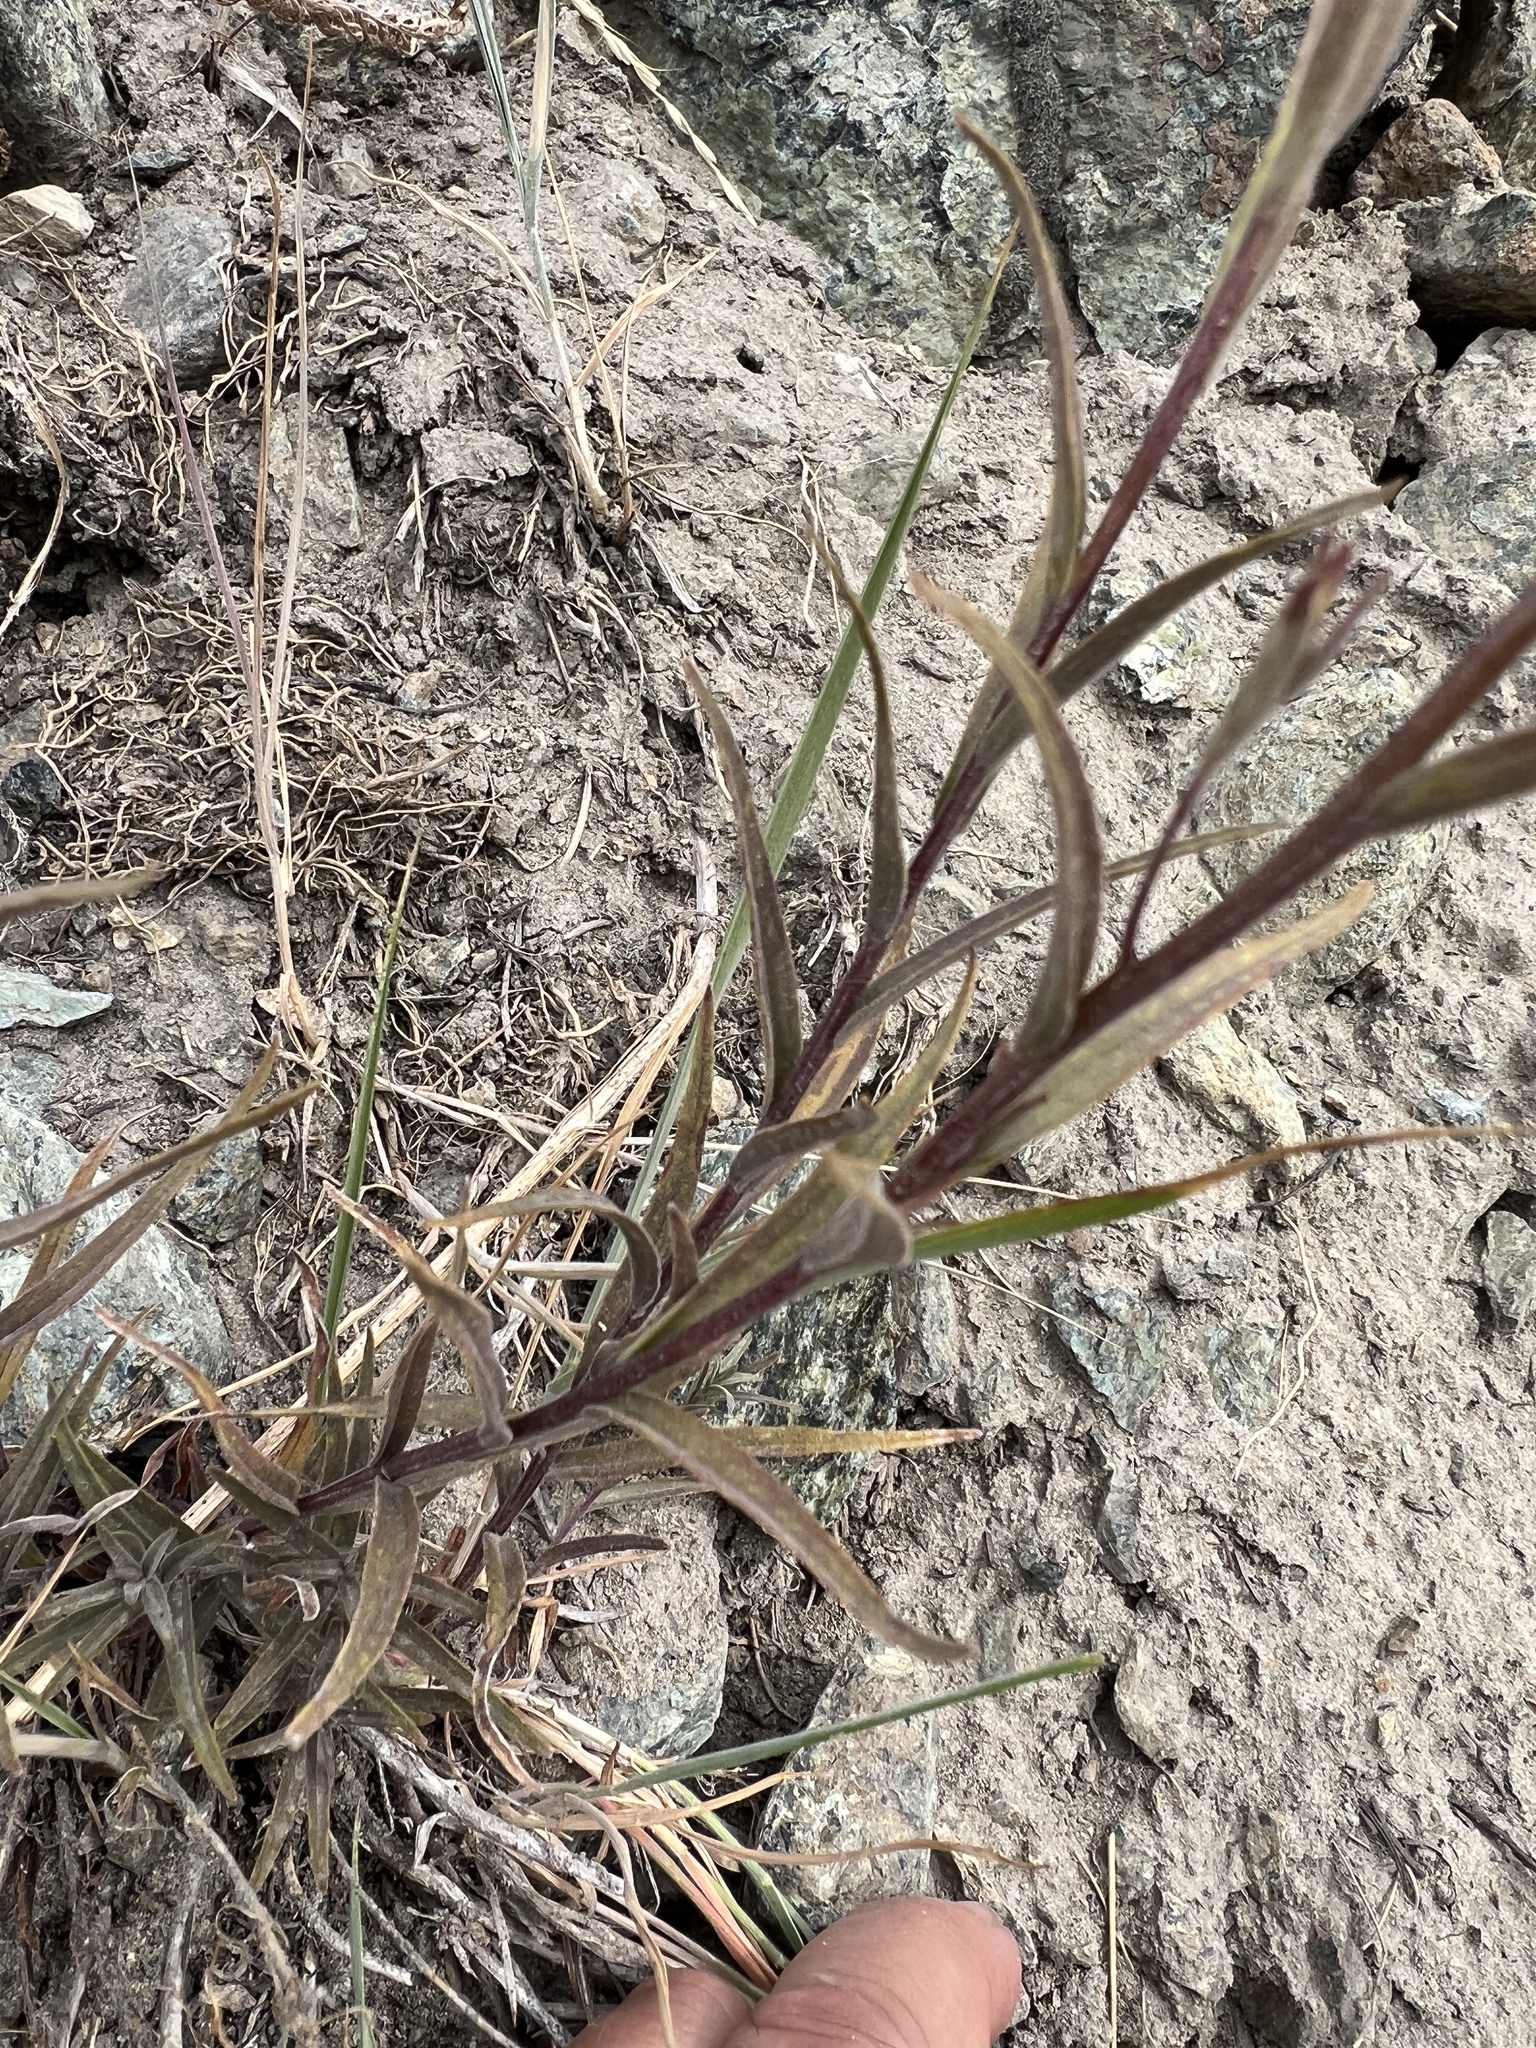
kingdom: Plantae
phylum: Tracheophyta
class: Magnoliopsida
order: Lamiales
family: Orobanchaceae
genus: Castilleja
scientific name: Castilleja elmeri
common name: Elmer's paintbrush
